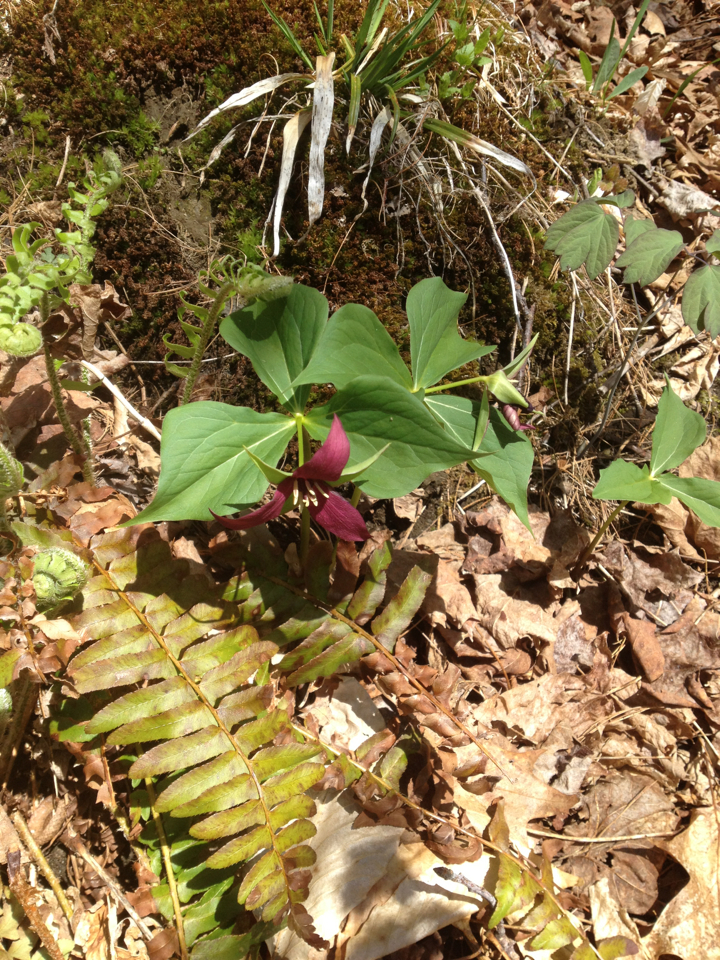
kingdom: Plantae
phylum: Tracheophyta
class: Liliopsida
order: Liliales
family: Melanthiaceae
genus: Trillium
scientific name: Trillium erectum
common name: Purple trillium
